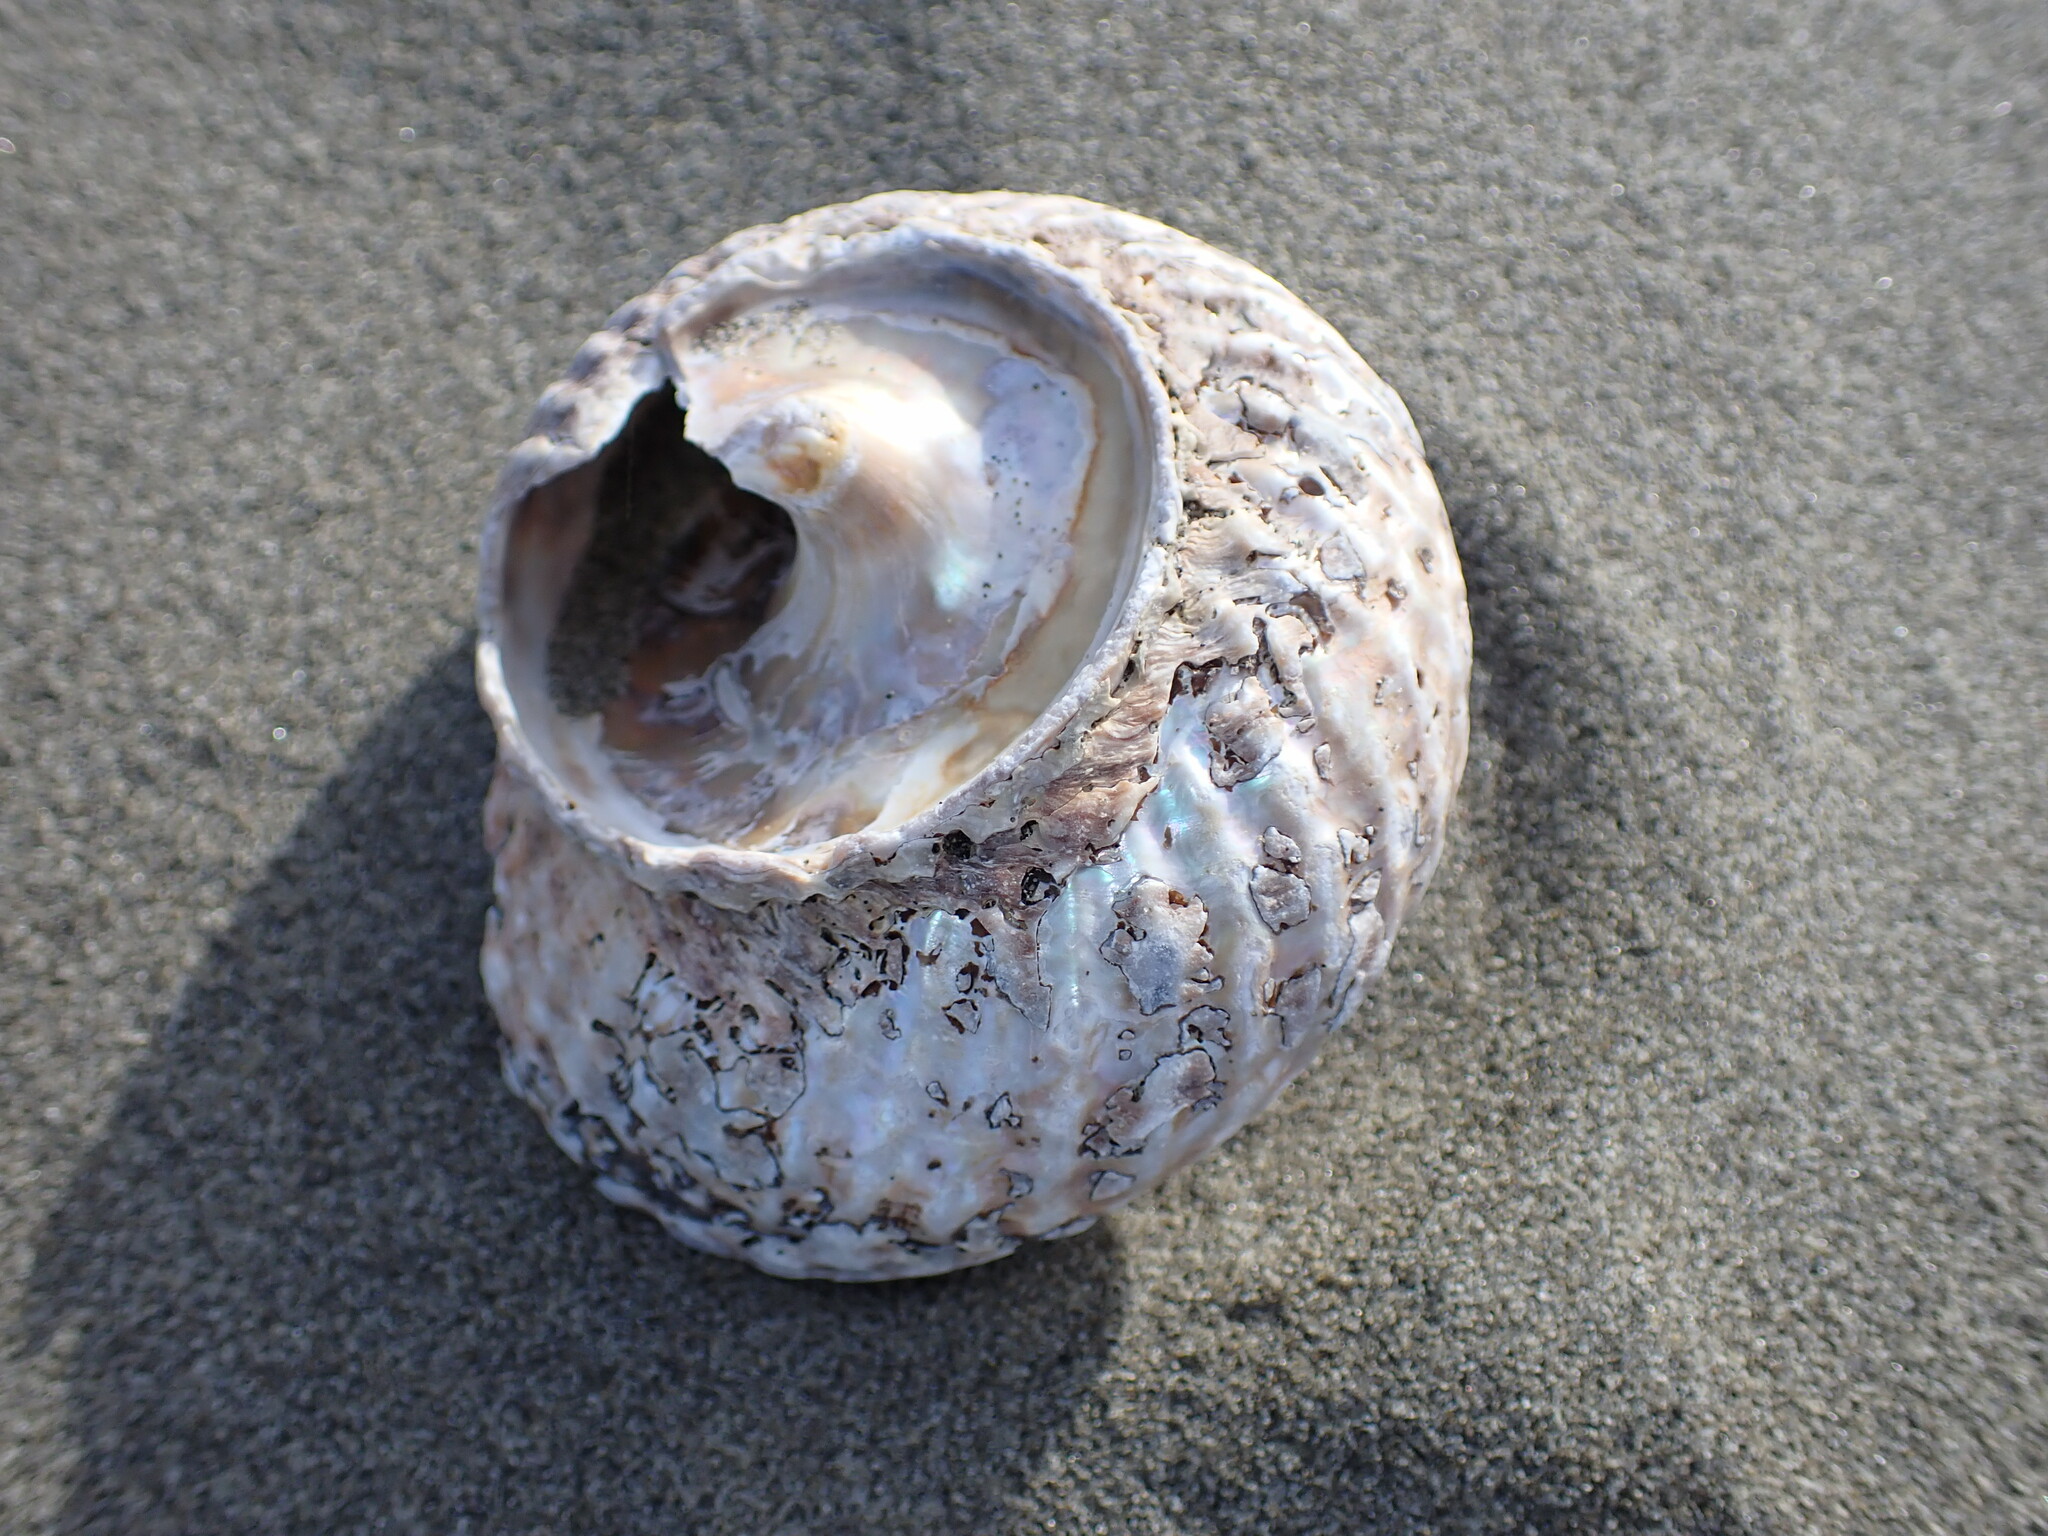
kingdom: Animalia
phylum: Mollusca
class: Gastropoda
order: Trochida
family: Turbinidae
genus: Cookia
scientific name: Cookia sulcata
